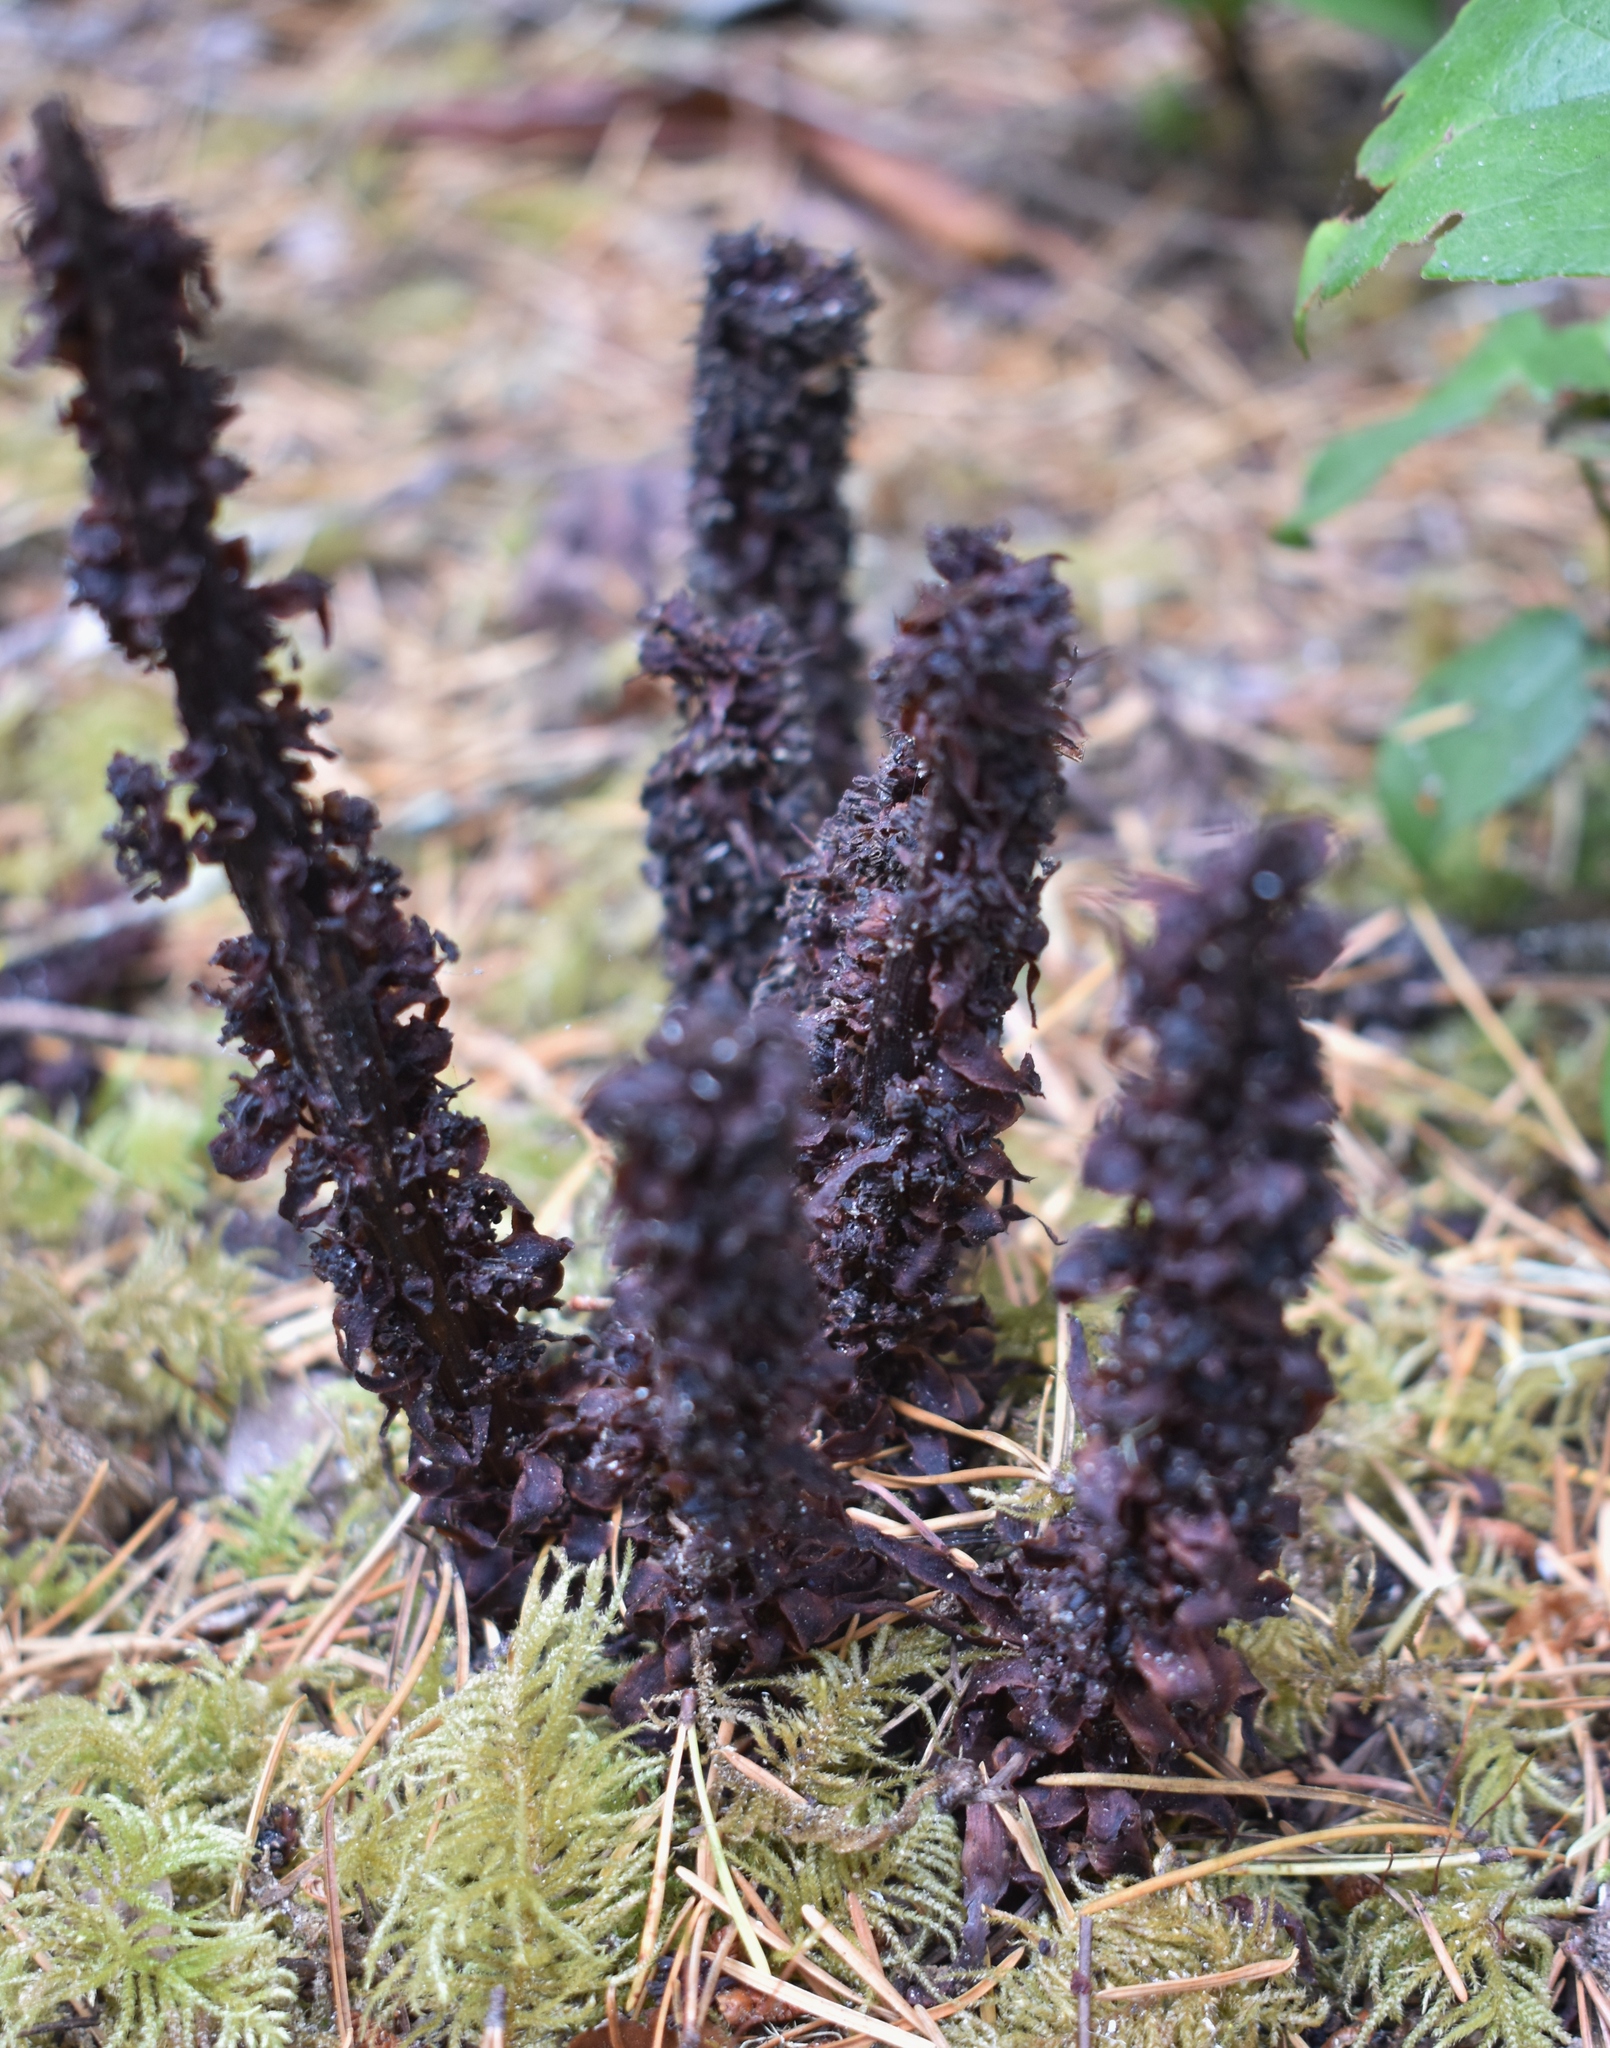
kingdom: Plantae
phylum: Tracheophyta
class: Magnoliopsida
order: Ericales
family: Ericaceae
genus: Allotropa
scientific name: Allotropa virgata
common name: Candy-striped allotropa
